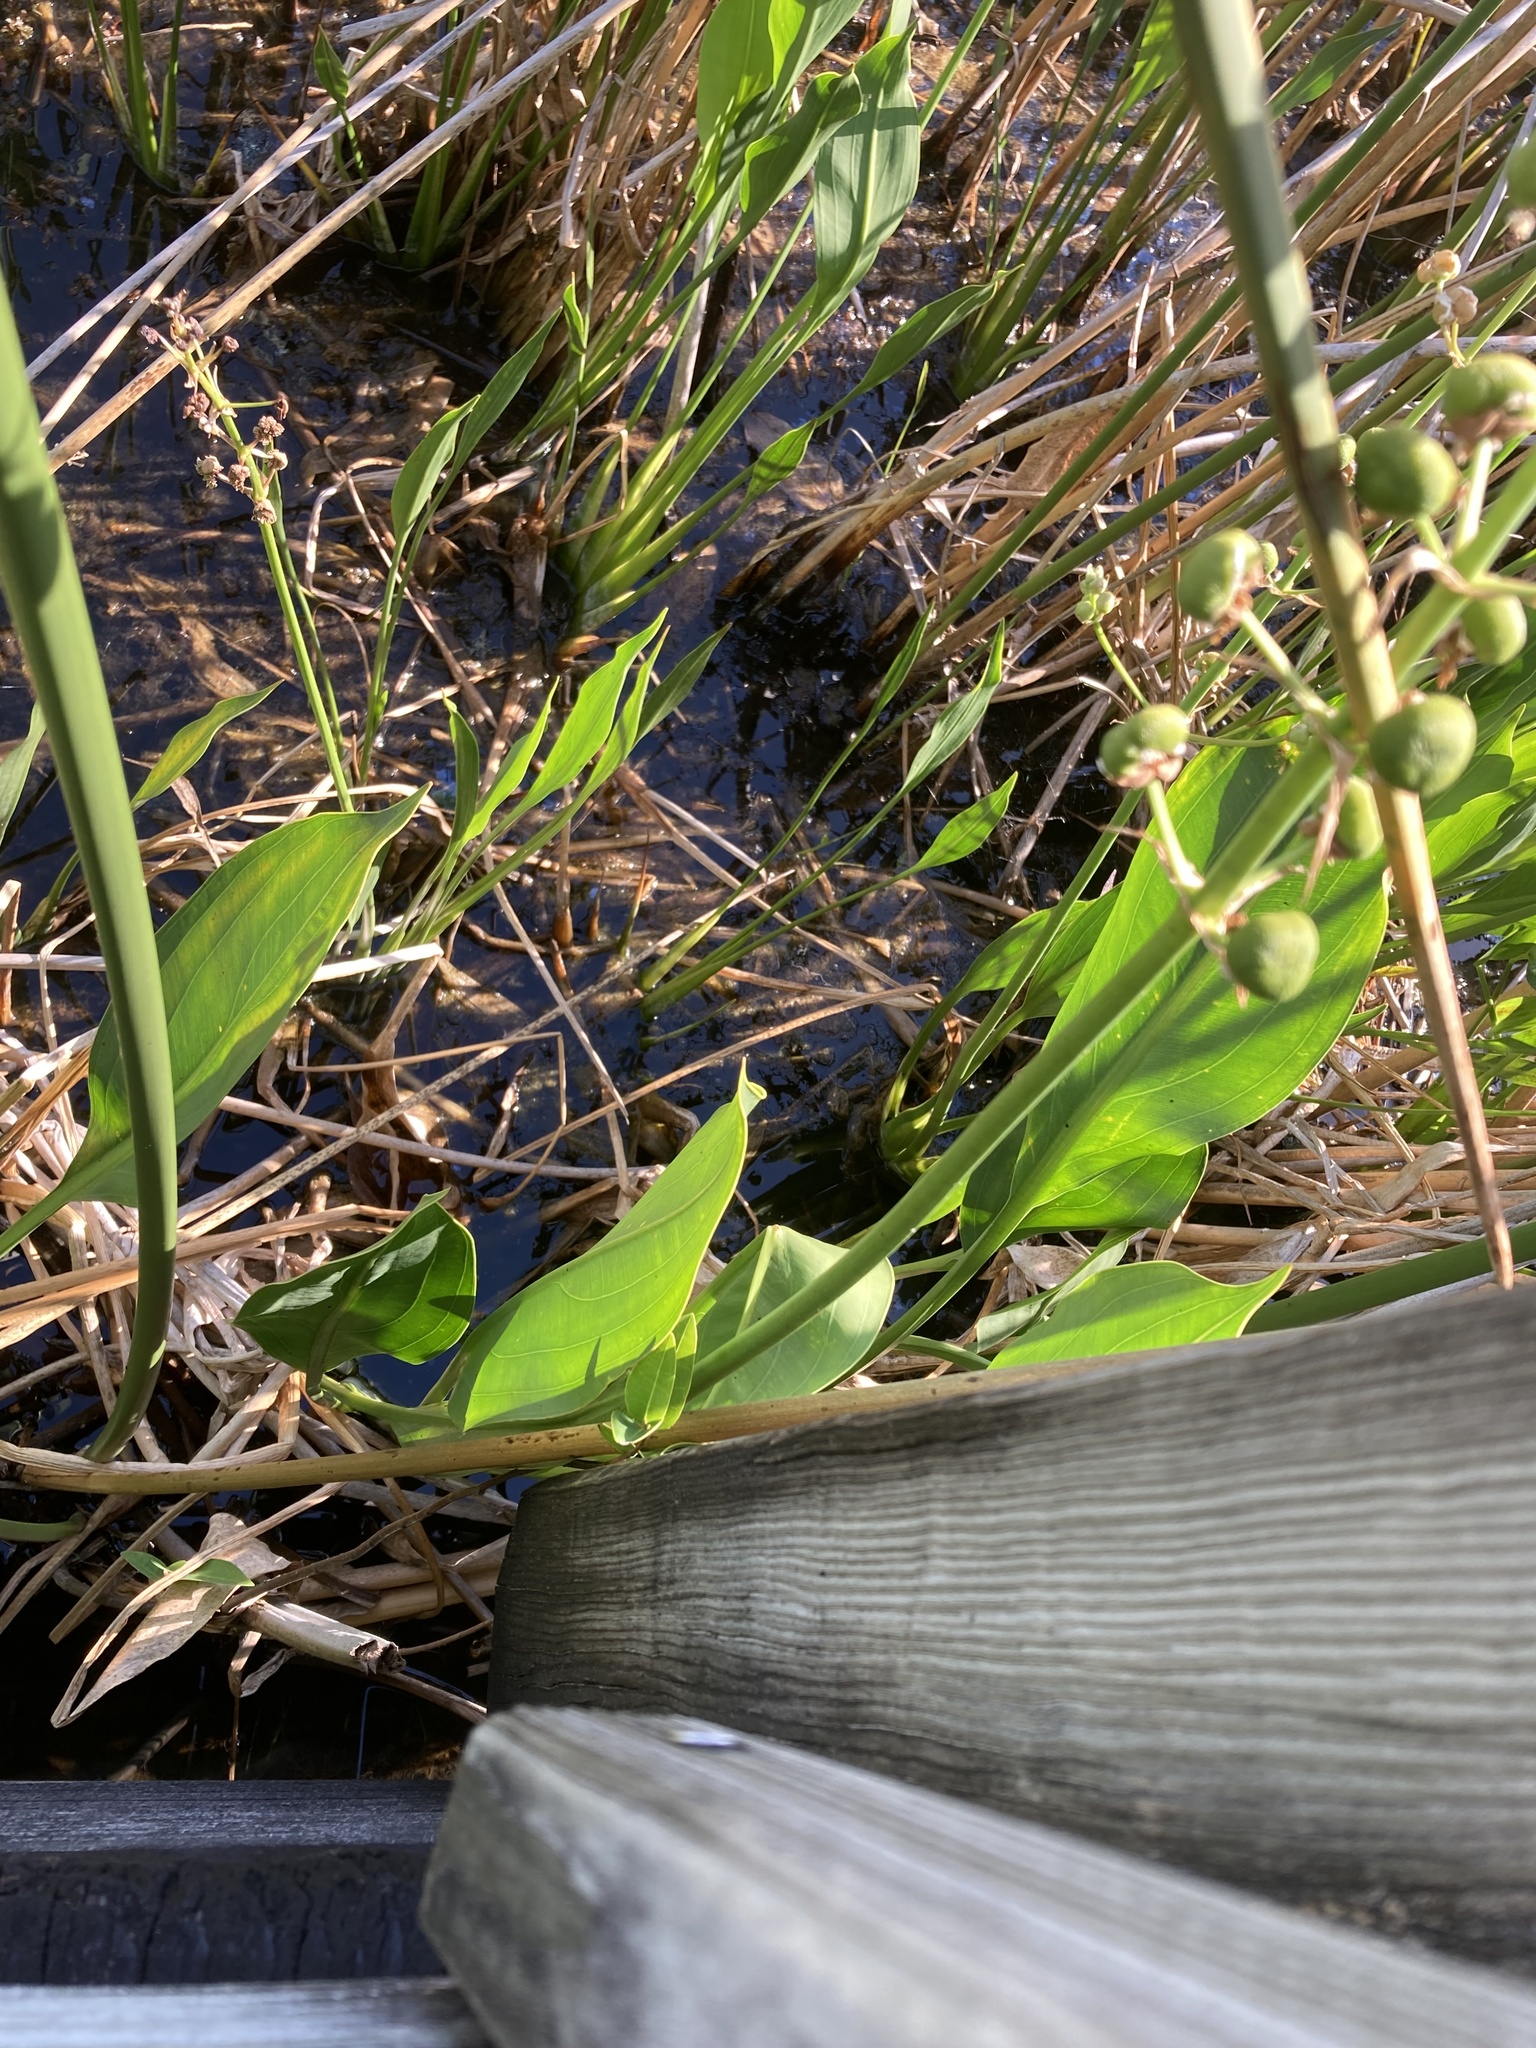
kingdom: Plantae
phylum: Tracheophyta
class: Liliopsida
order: Alismatales
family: Alismataceae
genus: Sagittaria
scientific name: Sagittaria lancifolia
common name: Lance-leaf arrowhead
